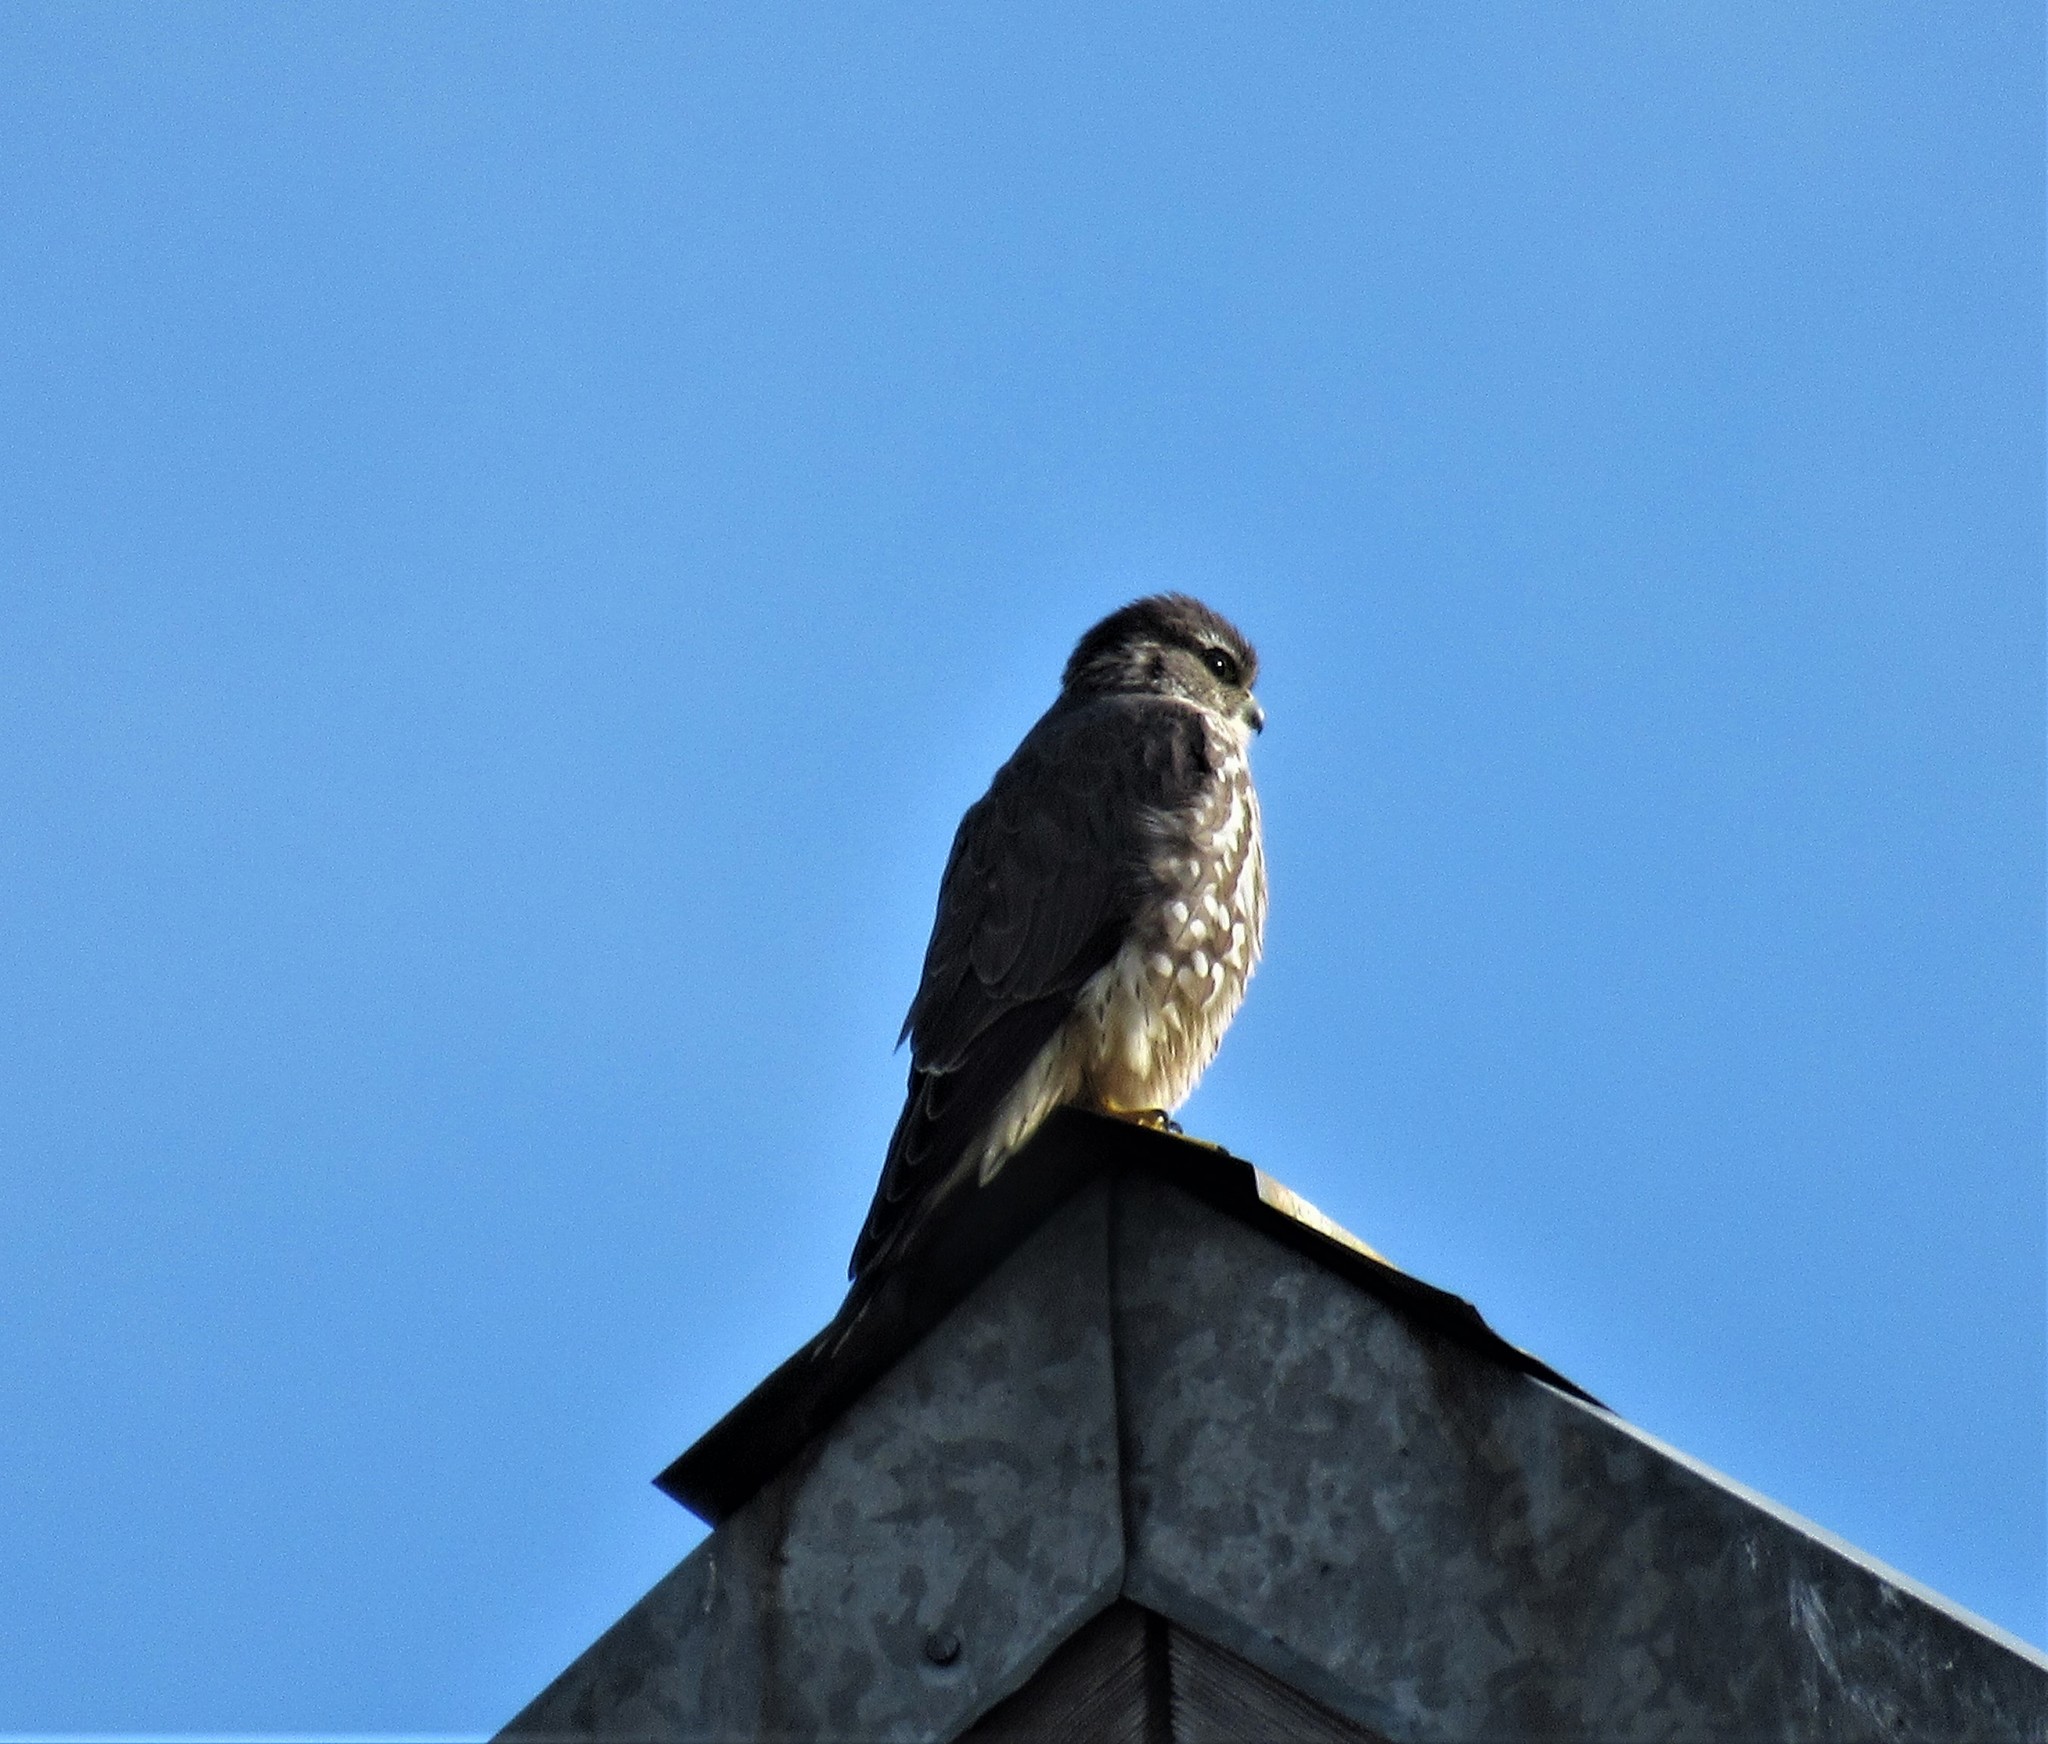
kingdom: Animalia
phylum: Chordata
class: Aves
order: Falconiformes
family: Falconidae
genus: Falco
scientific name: Falco columbarius
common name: Merlin
